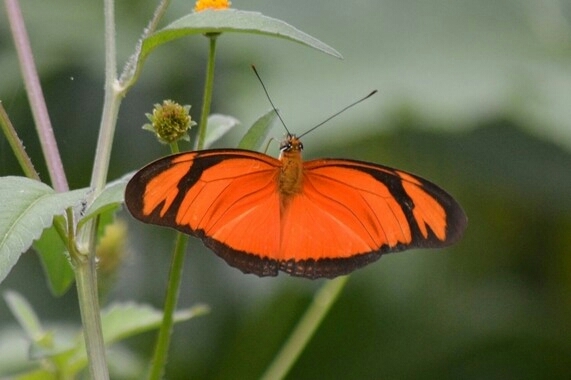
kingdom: Animalia
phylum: Arthropoda
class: Insecta
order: Lepidoptera
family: Nymphalidae
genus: Dryas
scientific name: Dryas iulia
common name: Flambeau
